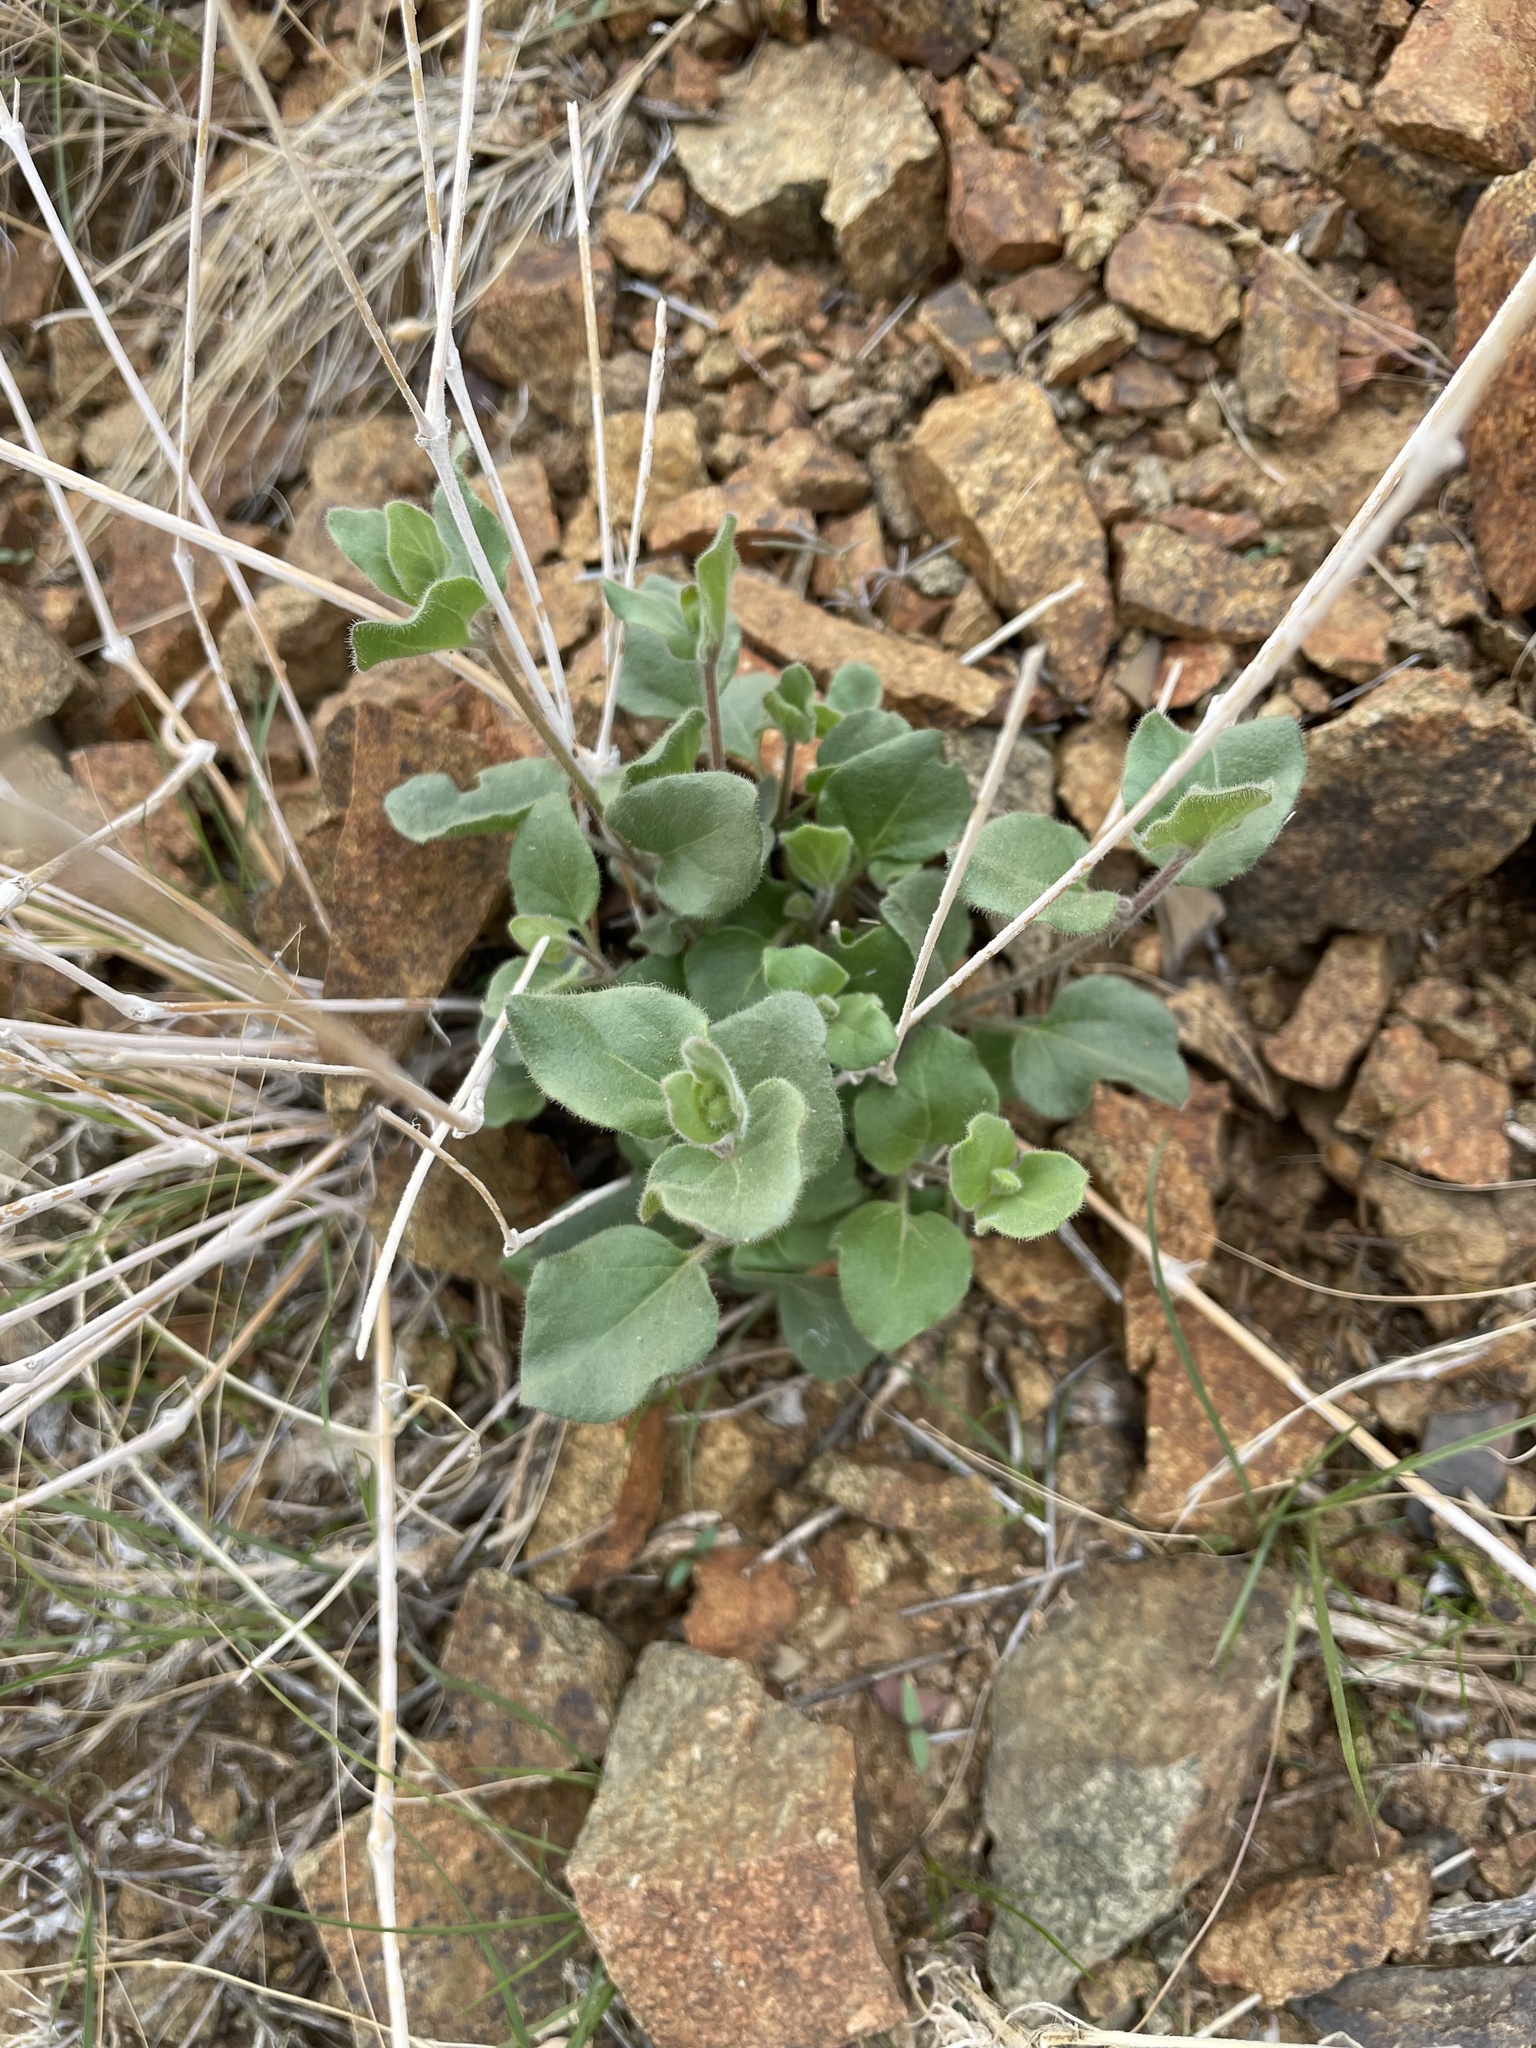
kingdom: Plantae
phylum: Tracheophyta
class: Magnoliopsida
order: Caryophyllales
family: Nyctaginaceae
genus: Mirabilis
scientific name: Mirabilis laevis
